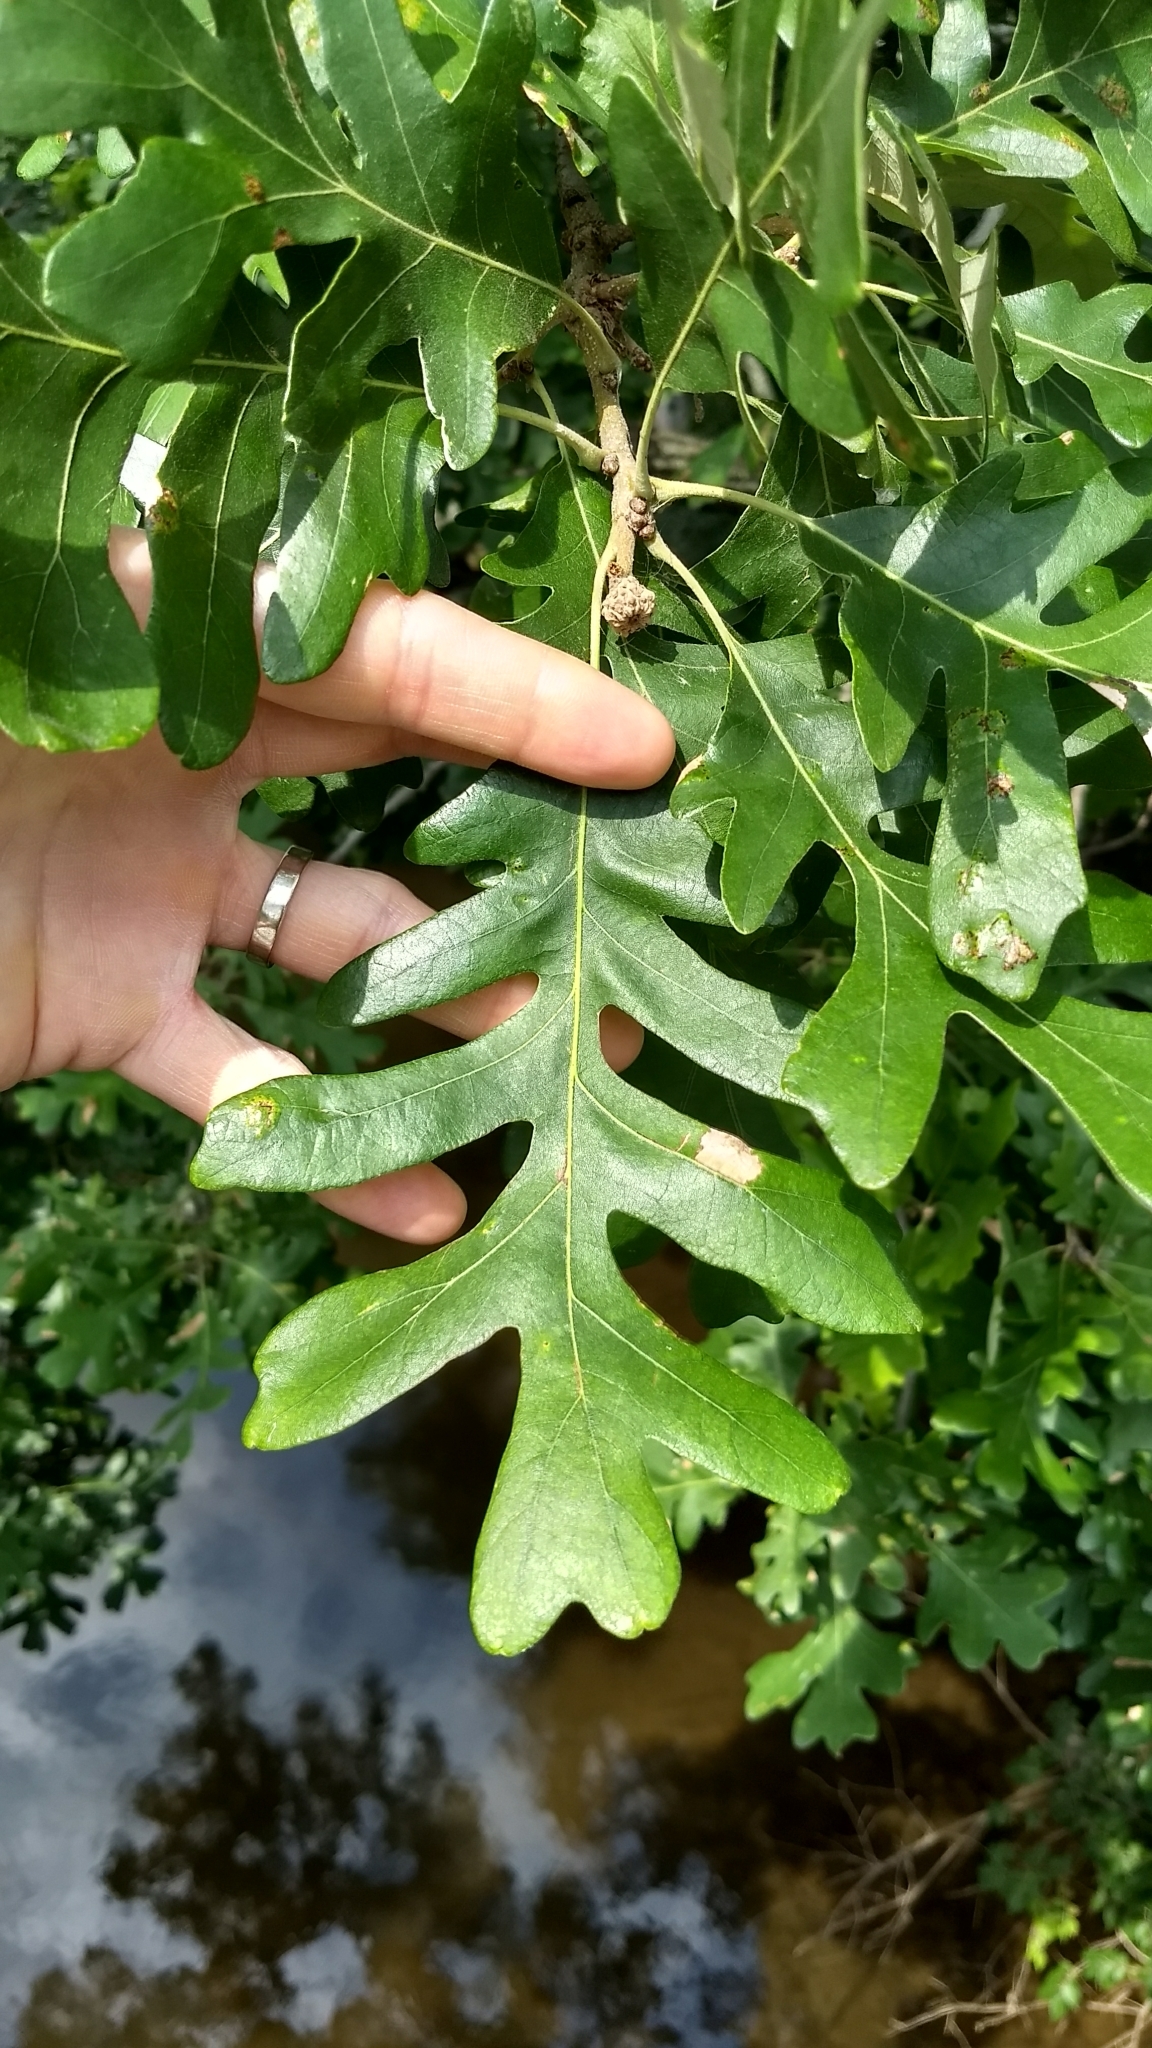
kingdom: Plantae
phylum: Tracheophyta
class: Magnoliopsida
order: Fagales
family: Fagaceae
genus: Quercus
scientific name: Quercus macrocarpa
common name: Bur oak
